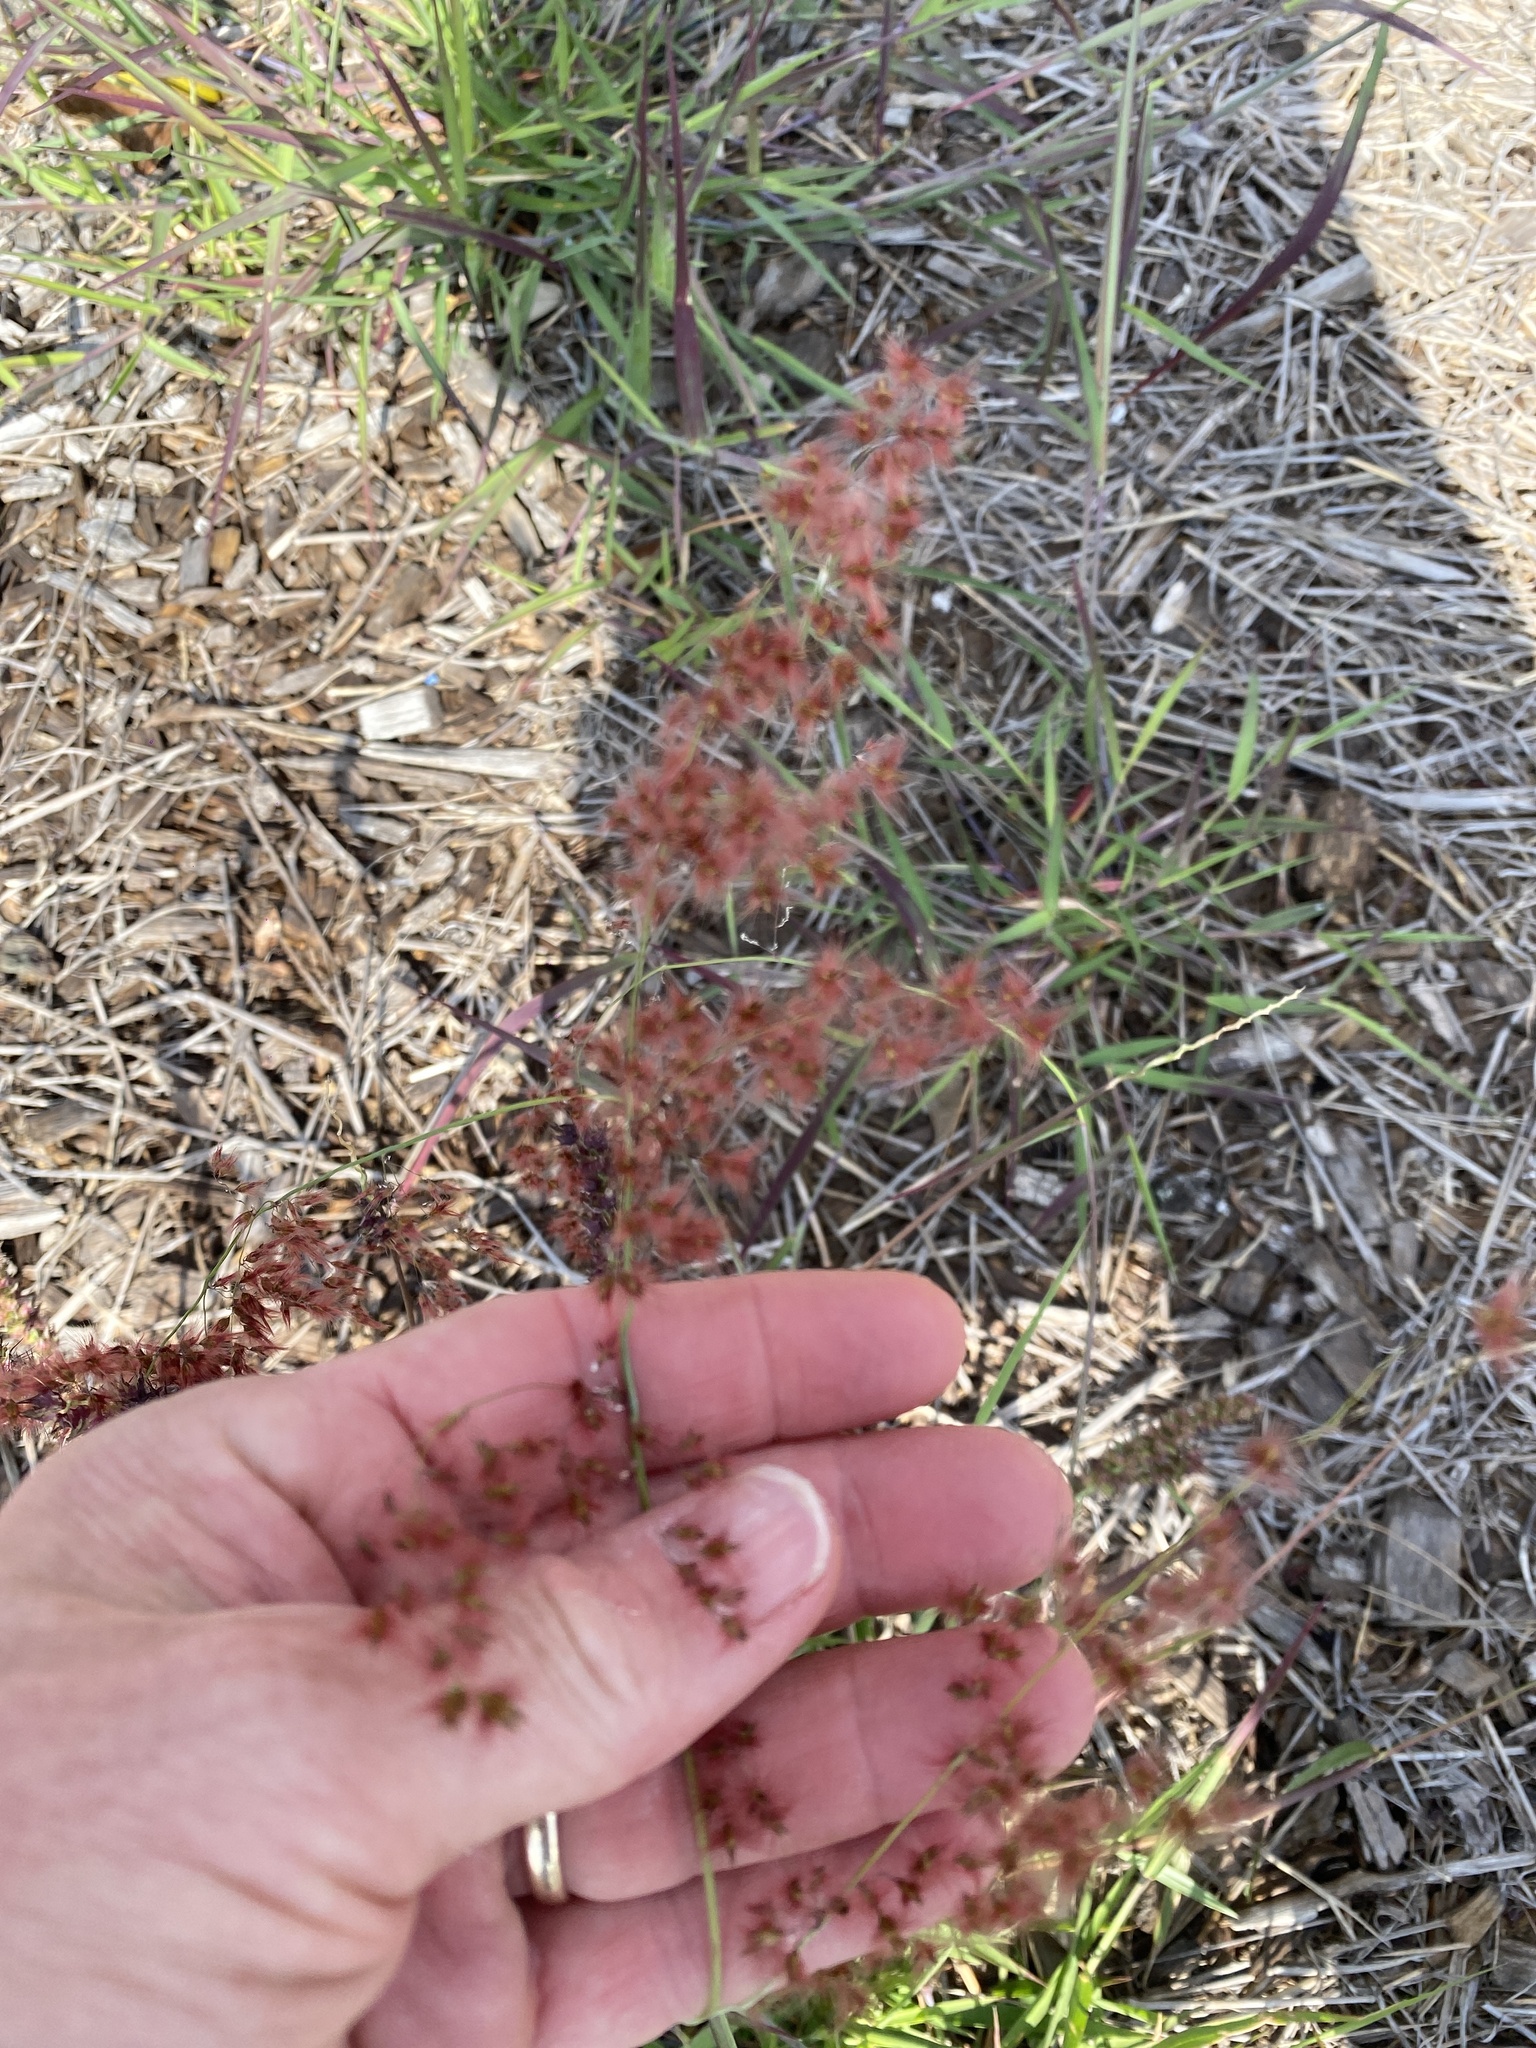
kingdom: Plantae
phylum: Tracheophyta
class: Liliopsida
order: Poales
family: Poaceae
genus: Melinis
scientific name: Melinis repens
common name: Rose natal grass
